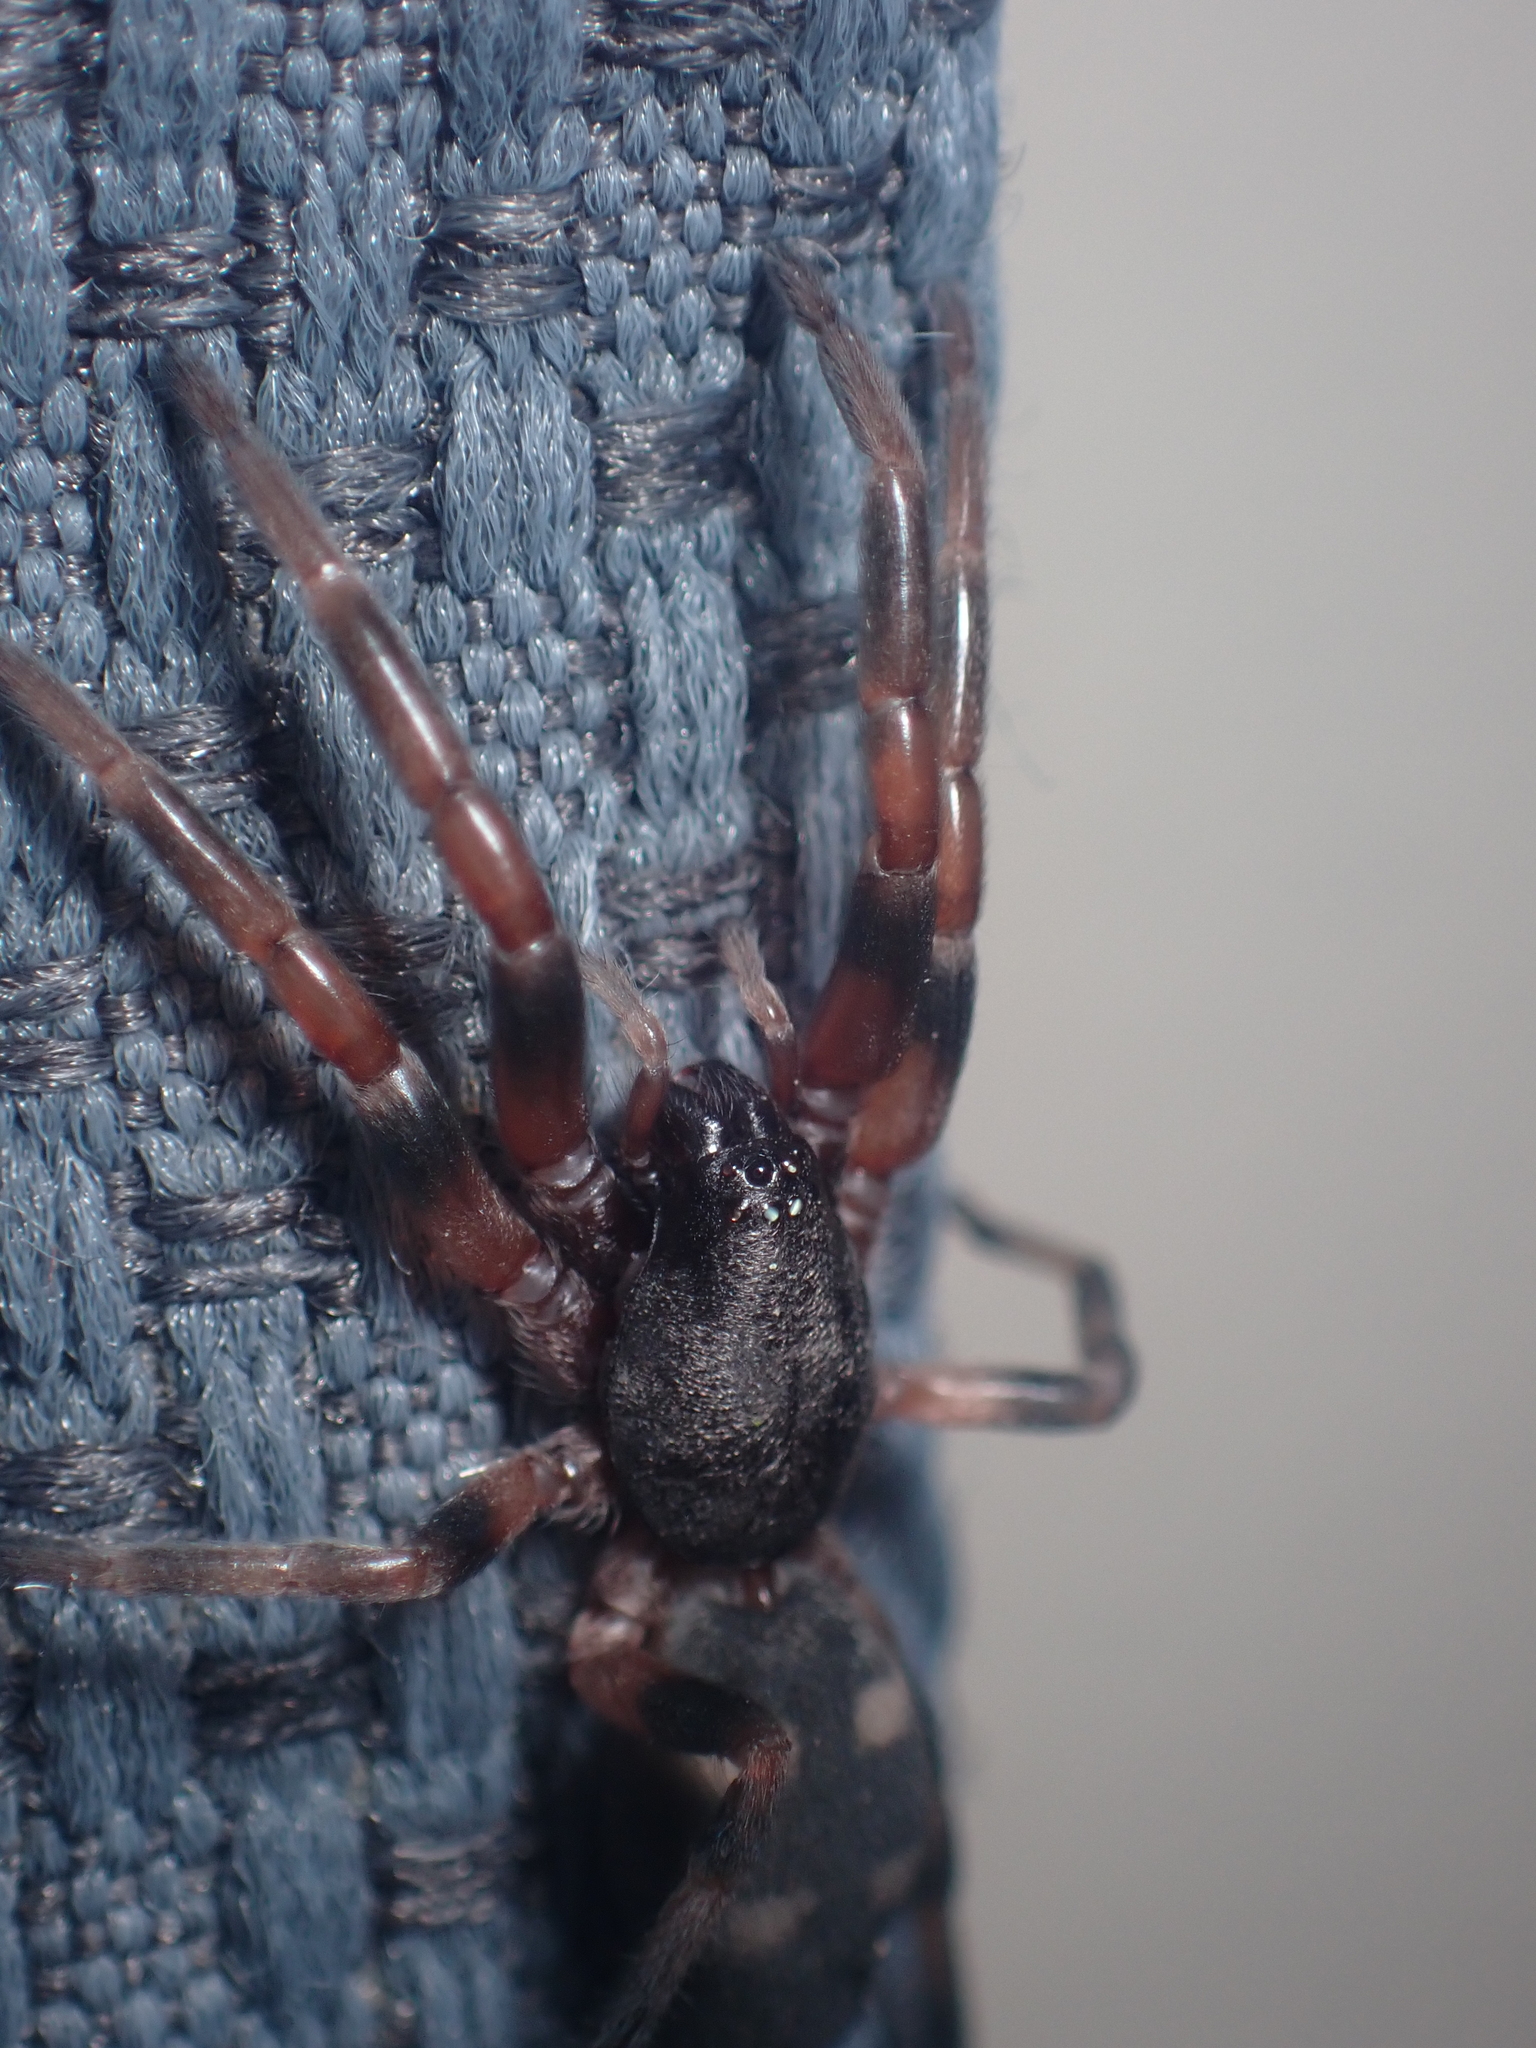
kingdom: Animalia
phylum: Arthropoda
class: Arachnida
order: Araneae
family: Lamponidae
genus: Lampona
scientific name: Lampona murina
